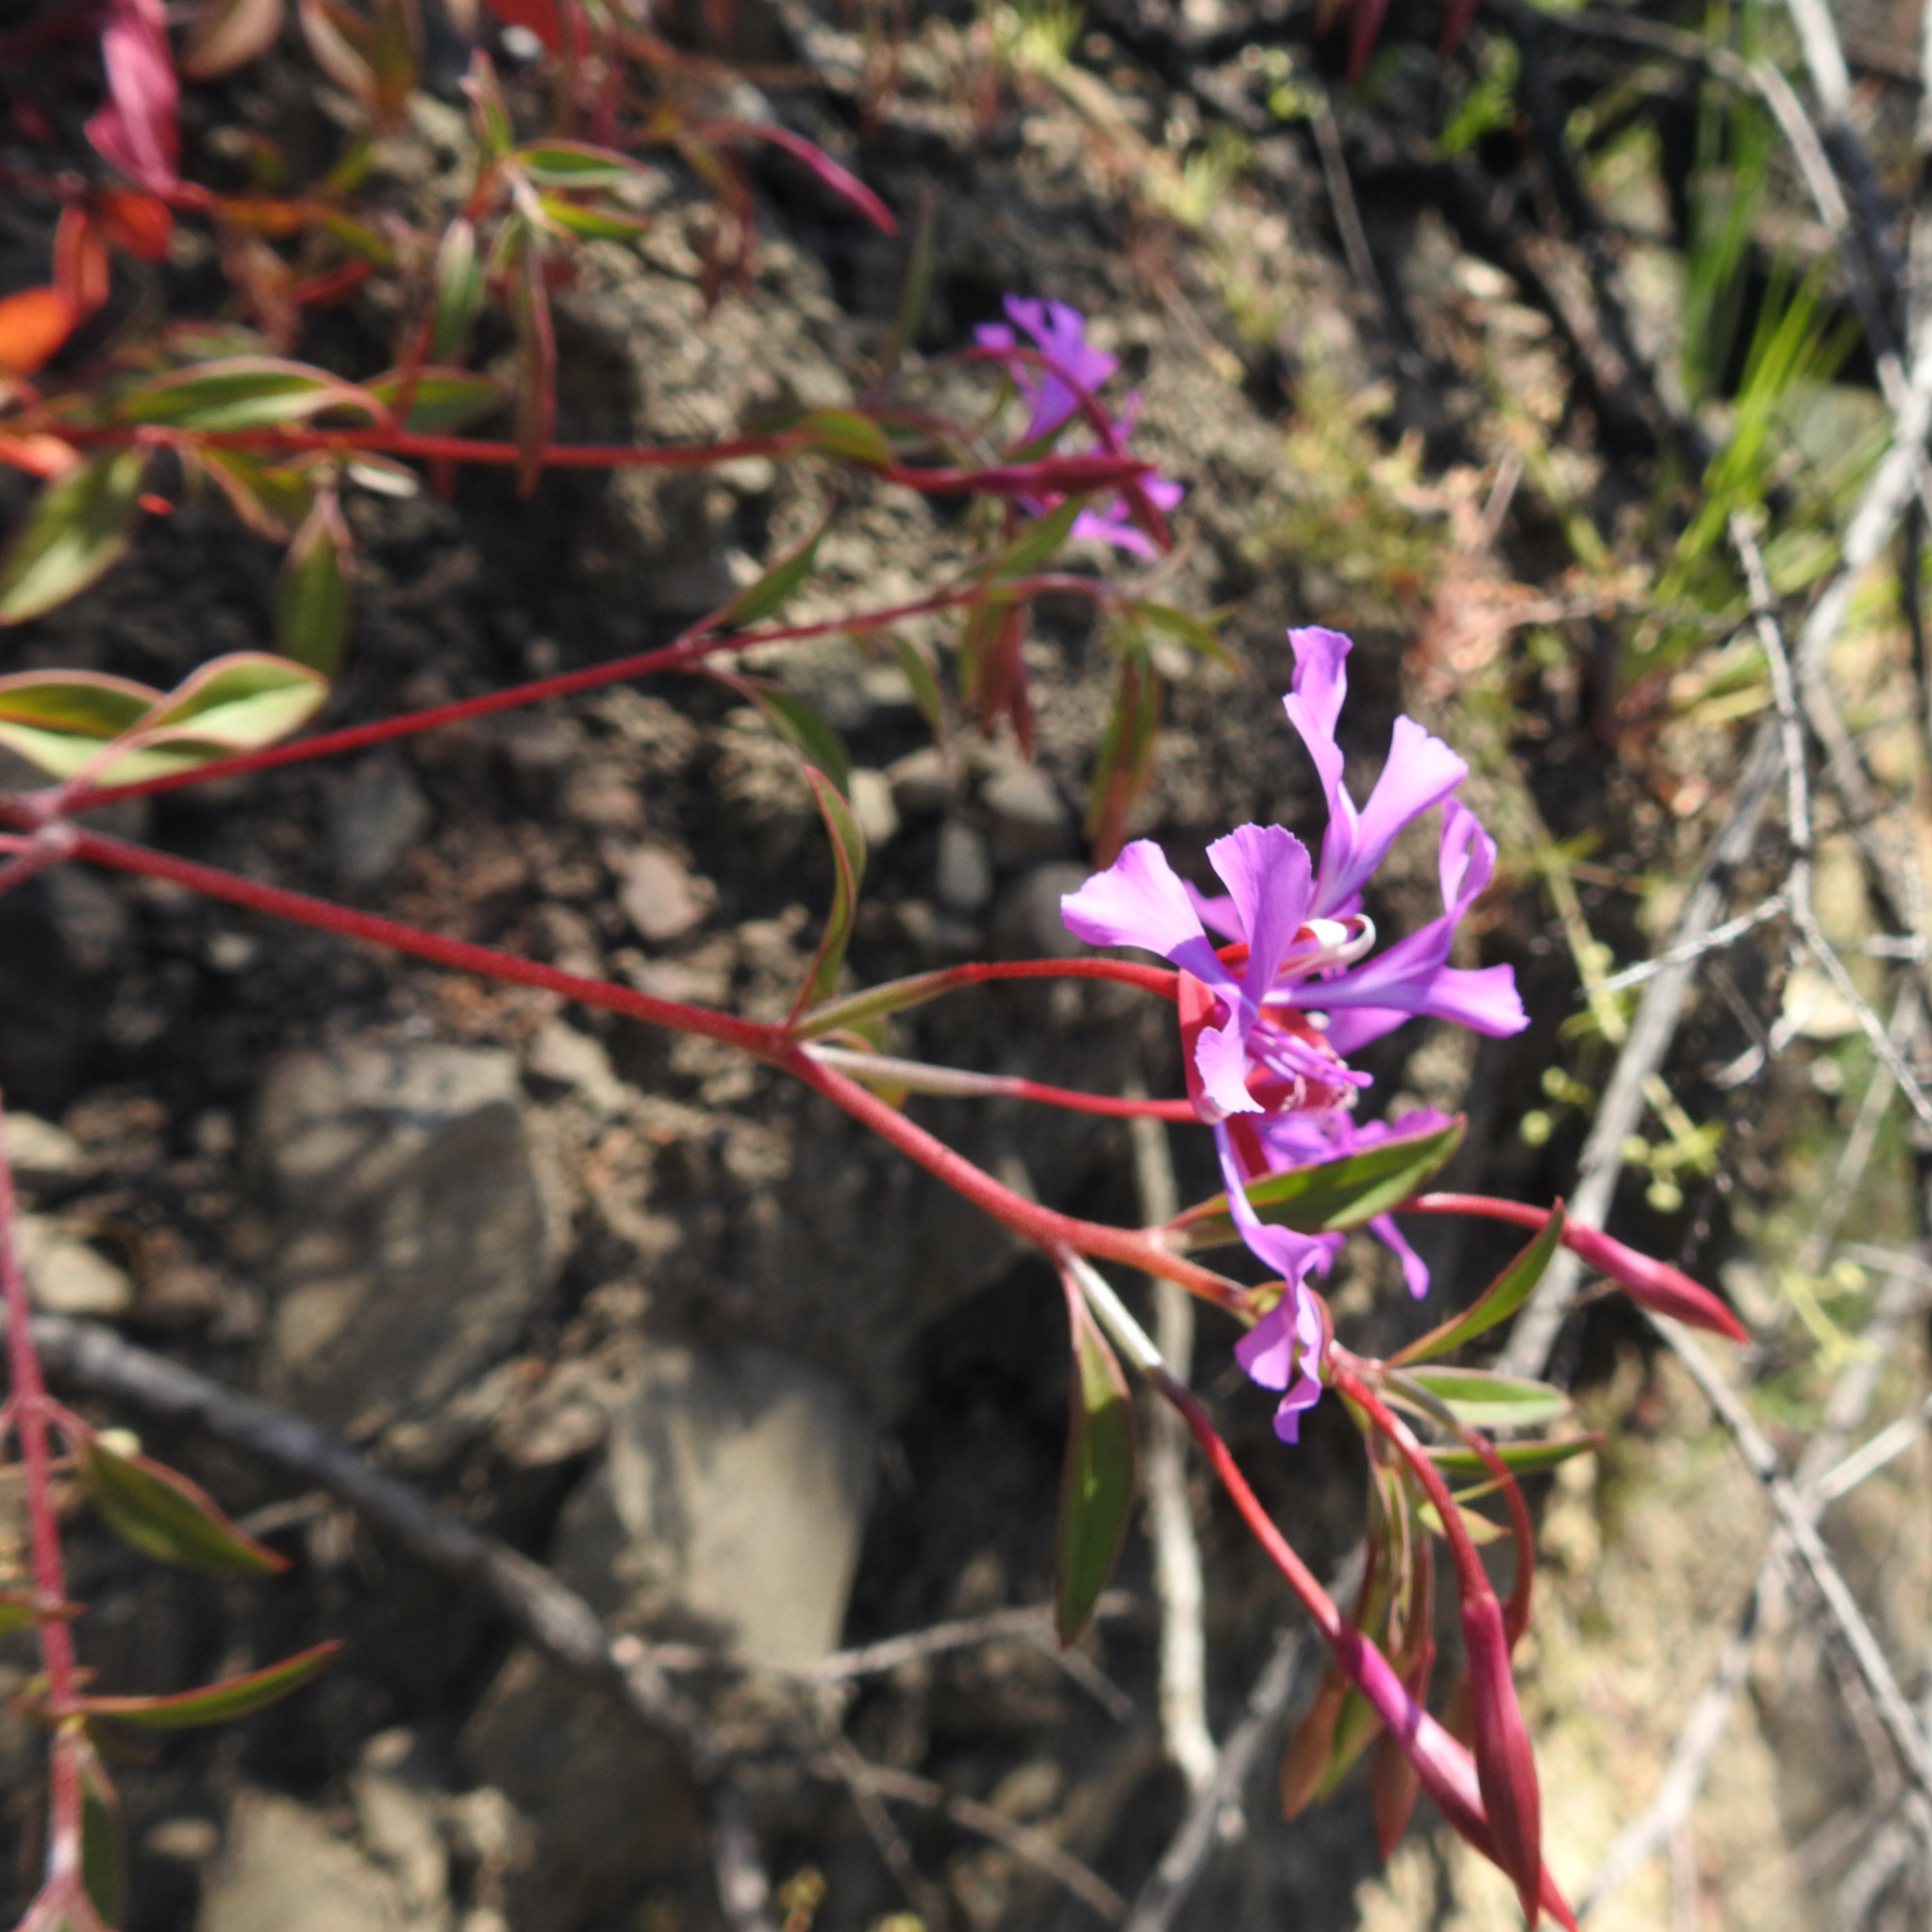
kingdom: Plantae
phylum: Tracheophyta
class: Magnoliopsida
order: Myrtales
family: Onagraceae
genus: Clarkia
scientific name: Clarkia concinna
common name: Red-ribbons
